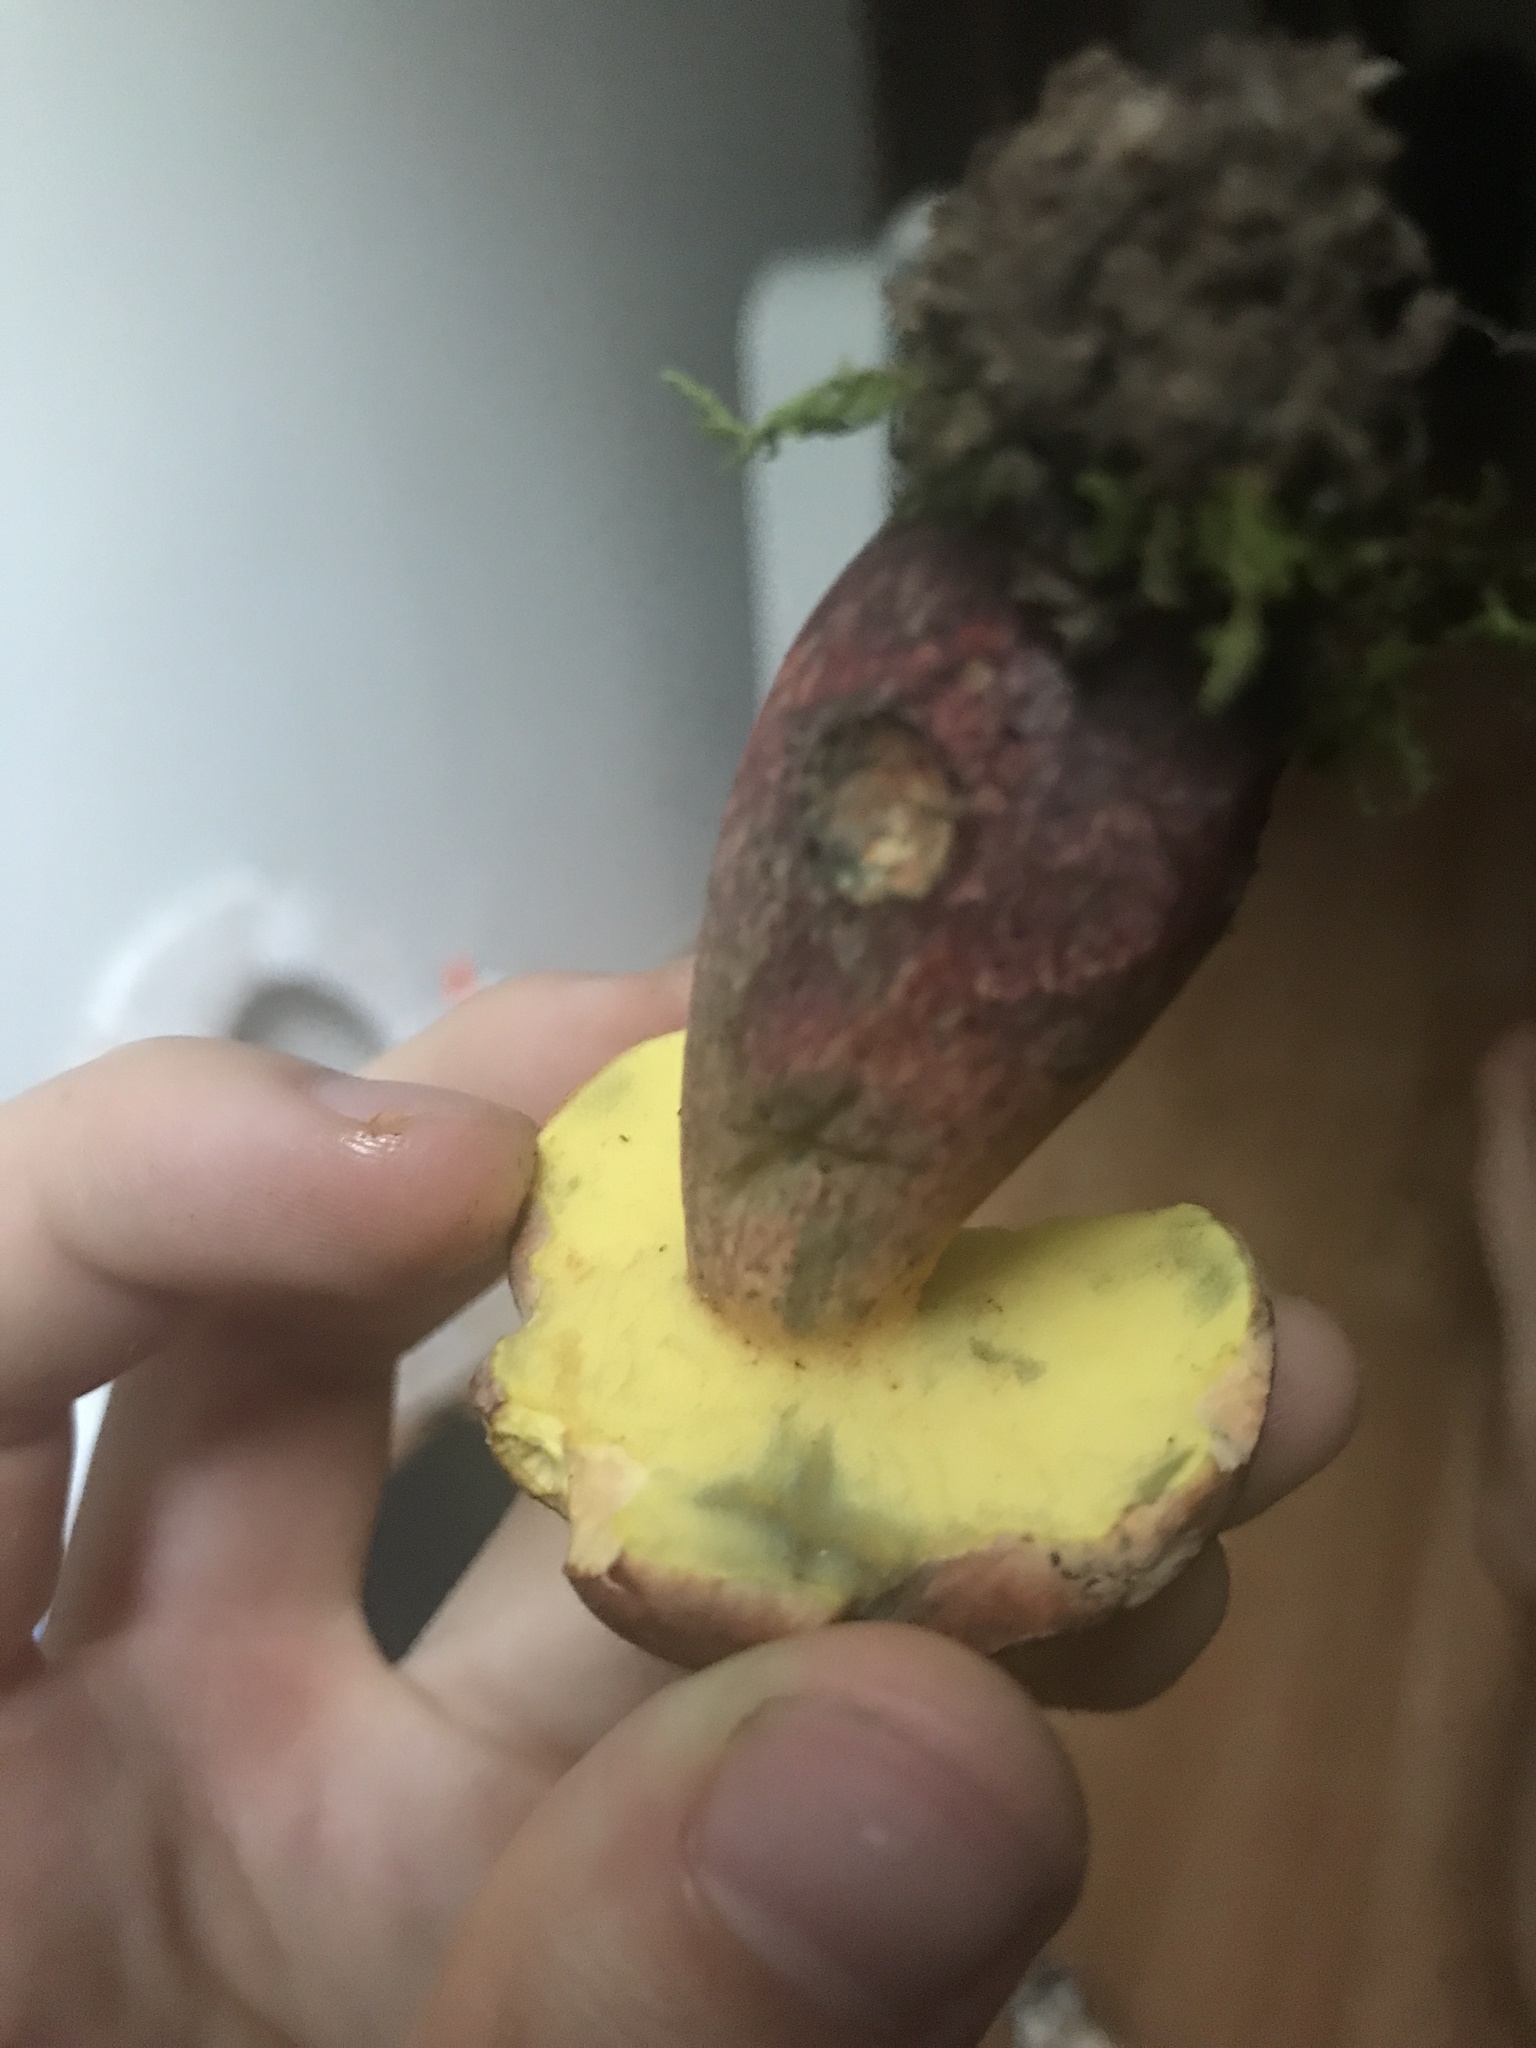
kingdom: Fungi
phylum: Basidiomycota
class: Agaricomycetes
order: Boletales
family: Boletaceae
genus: Baorangia
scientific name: Baorangia bicolor
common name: Two-colored bolete
